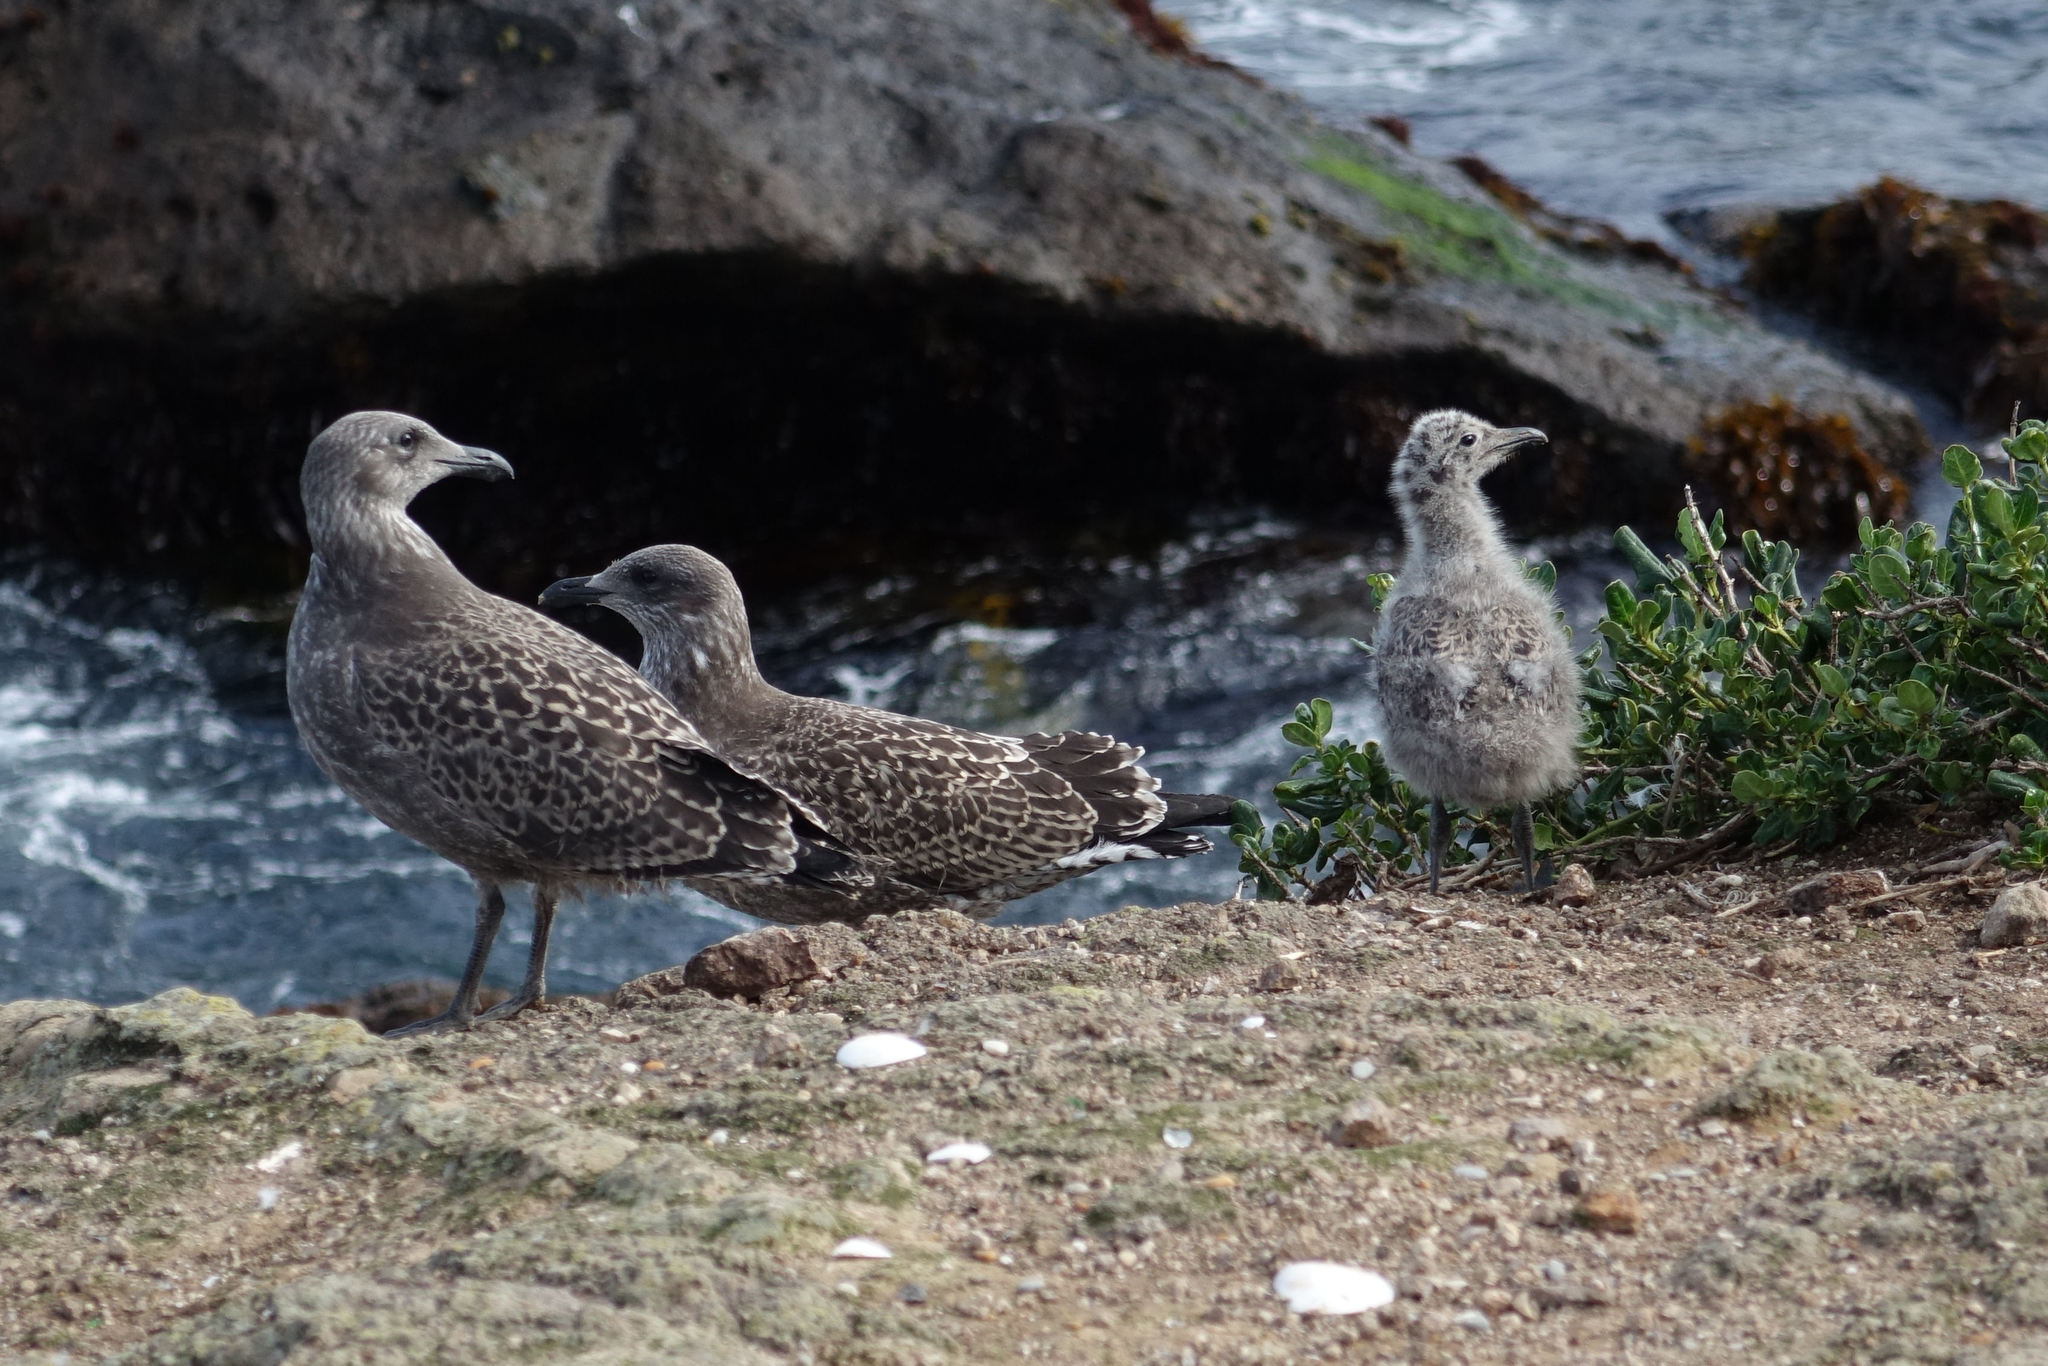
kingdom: Animalia
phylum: Chordata
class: Aves
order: Charadriiformes
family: Laridae
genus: Larus
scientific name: Larus dominicanus
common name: Kelp gull
